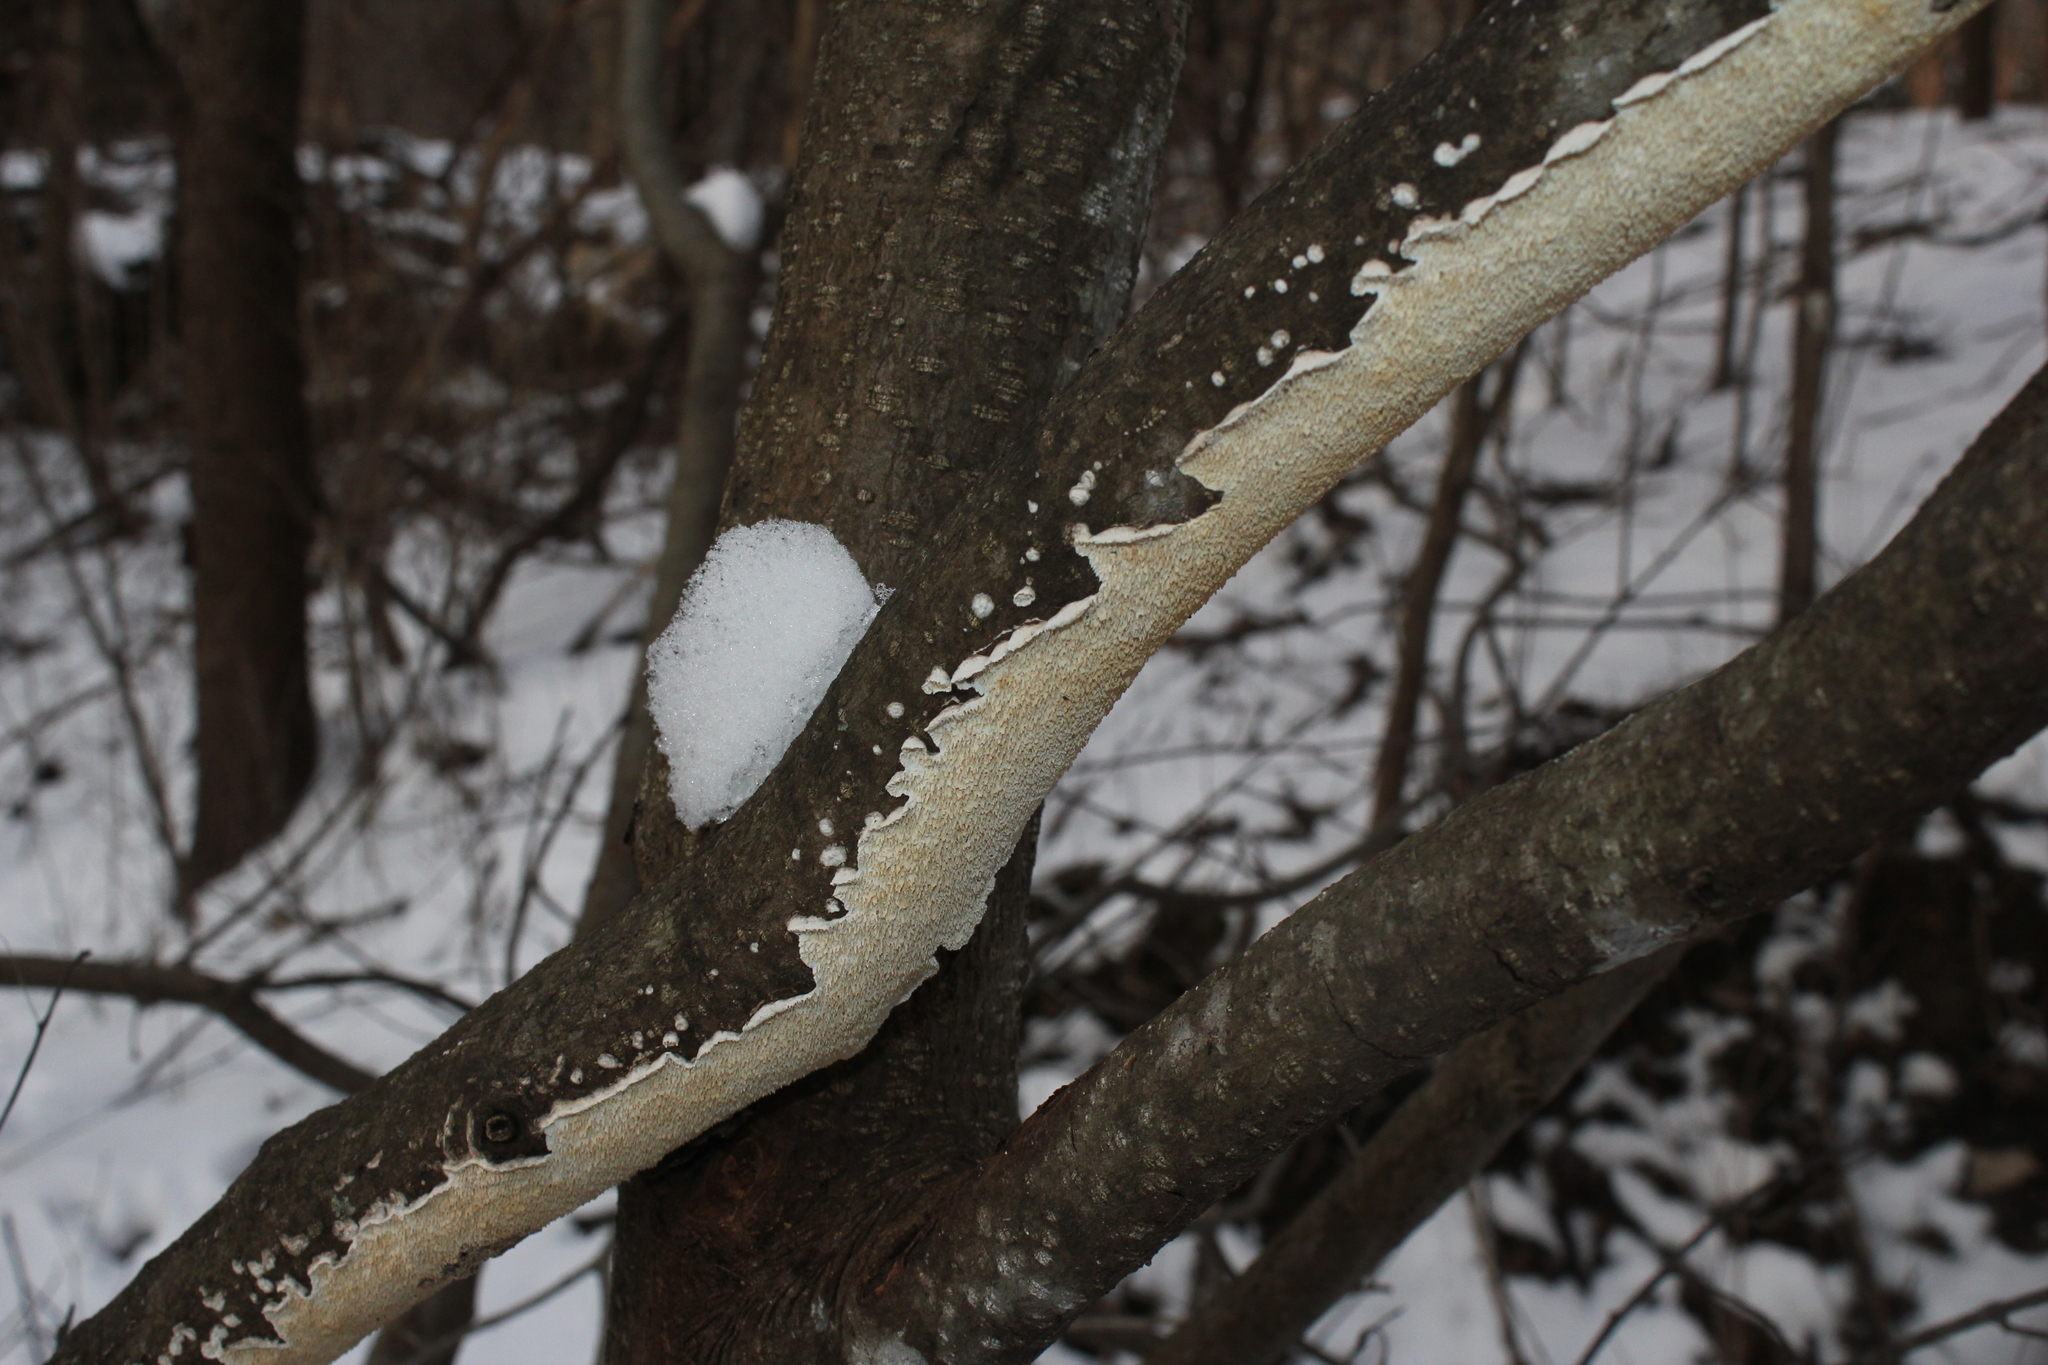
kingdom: Fungi
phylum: Basidiomycota
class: Agaricomycetes
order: Polyporales
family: Irpicaceae
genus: Irpex
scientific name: Irpex lacteus
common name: Milk-white toothed polypore
